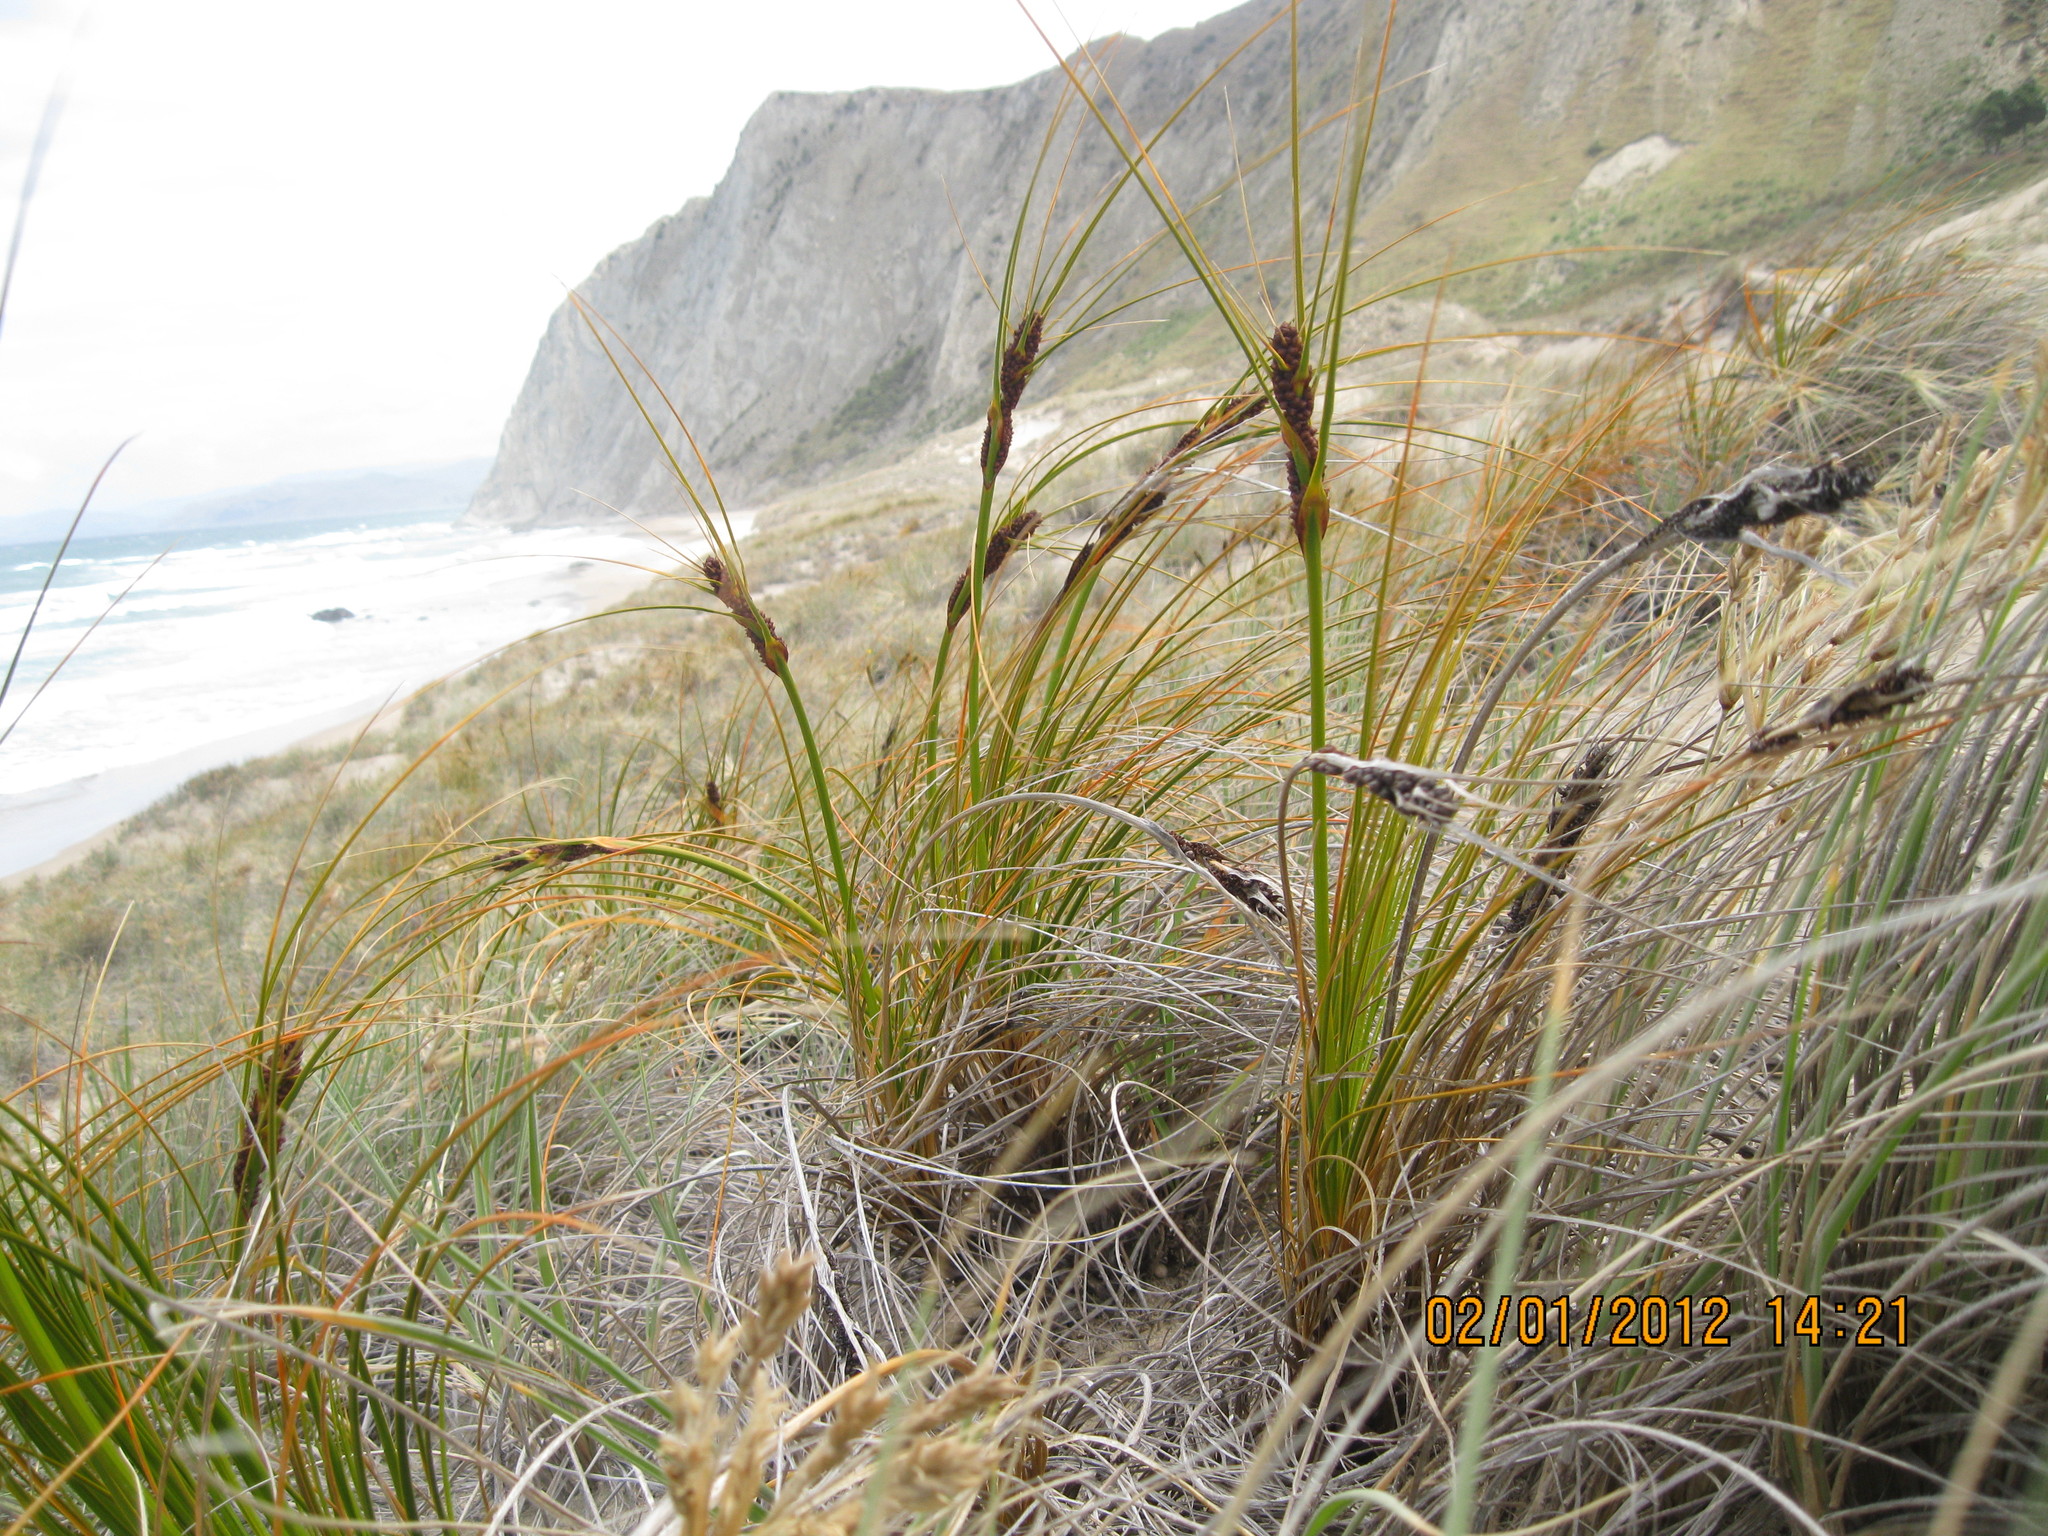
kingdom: Plantae
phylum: Tracheophyta
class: Liliopsida
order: Poales
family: Cyperaceae
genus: Ficinia
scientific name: Ficinia spiralis
